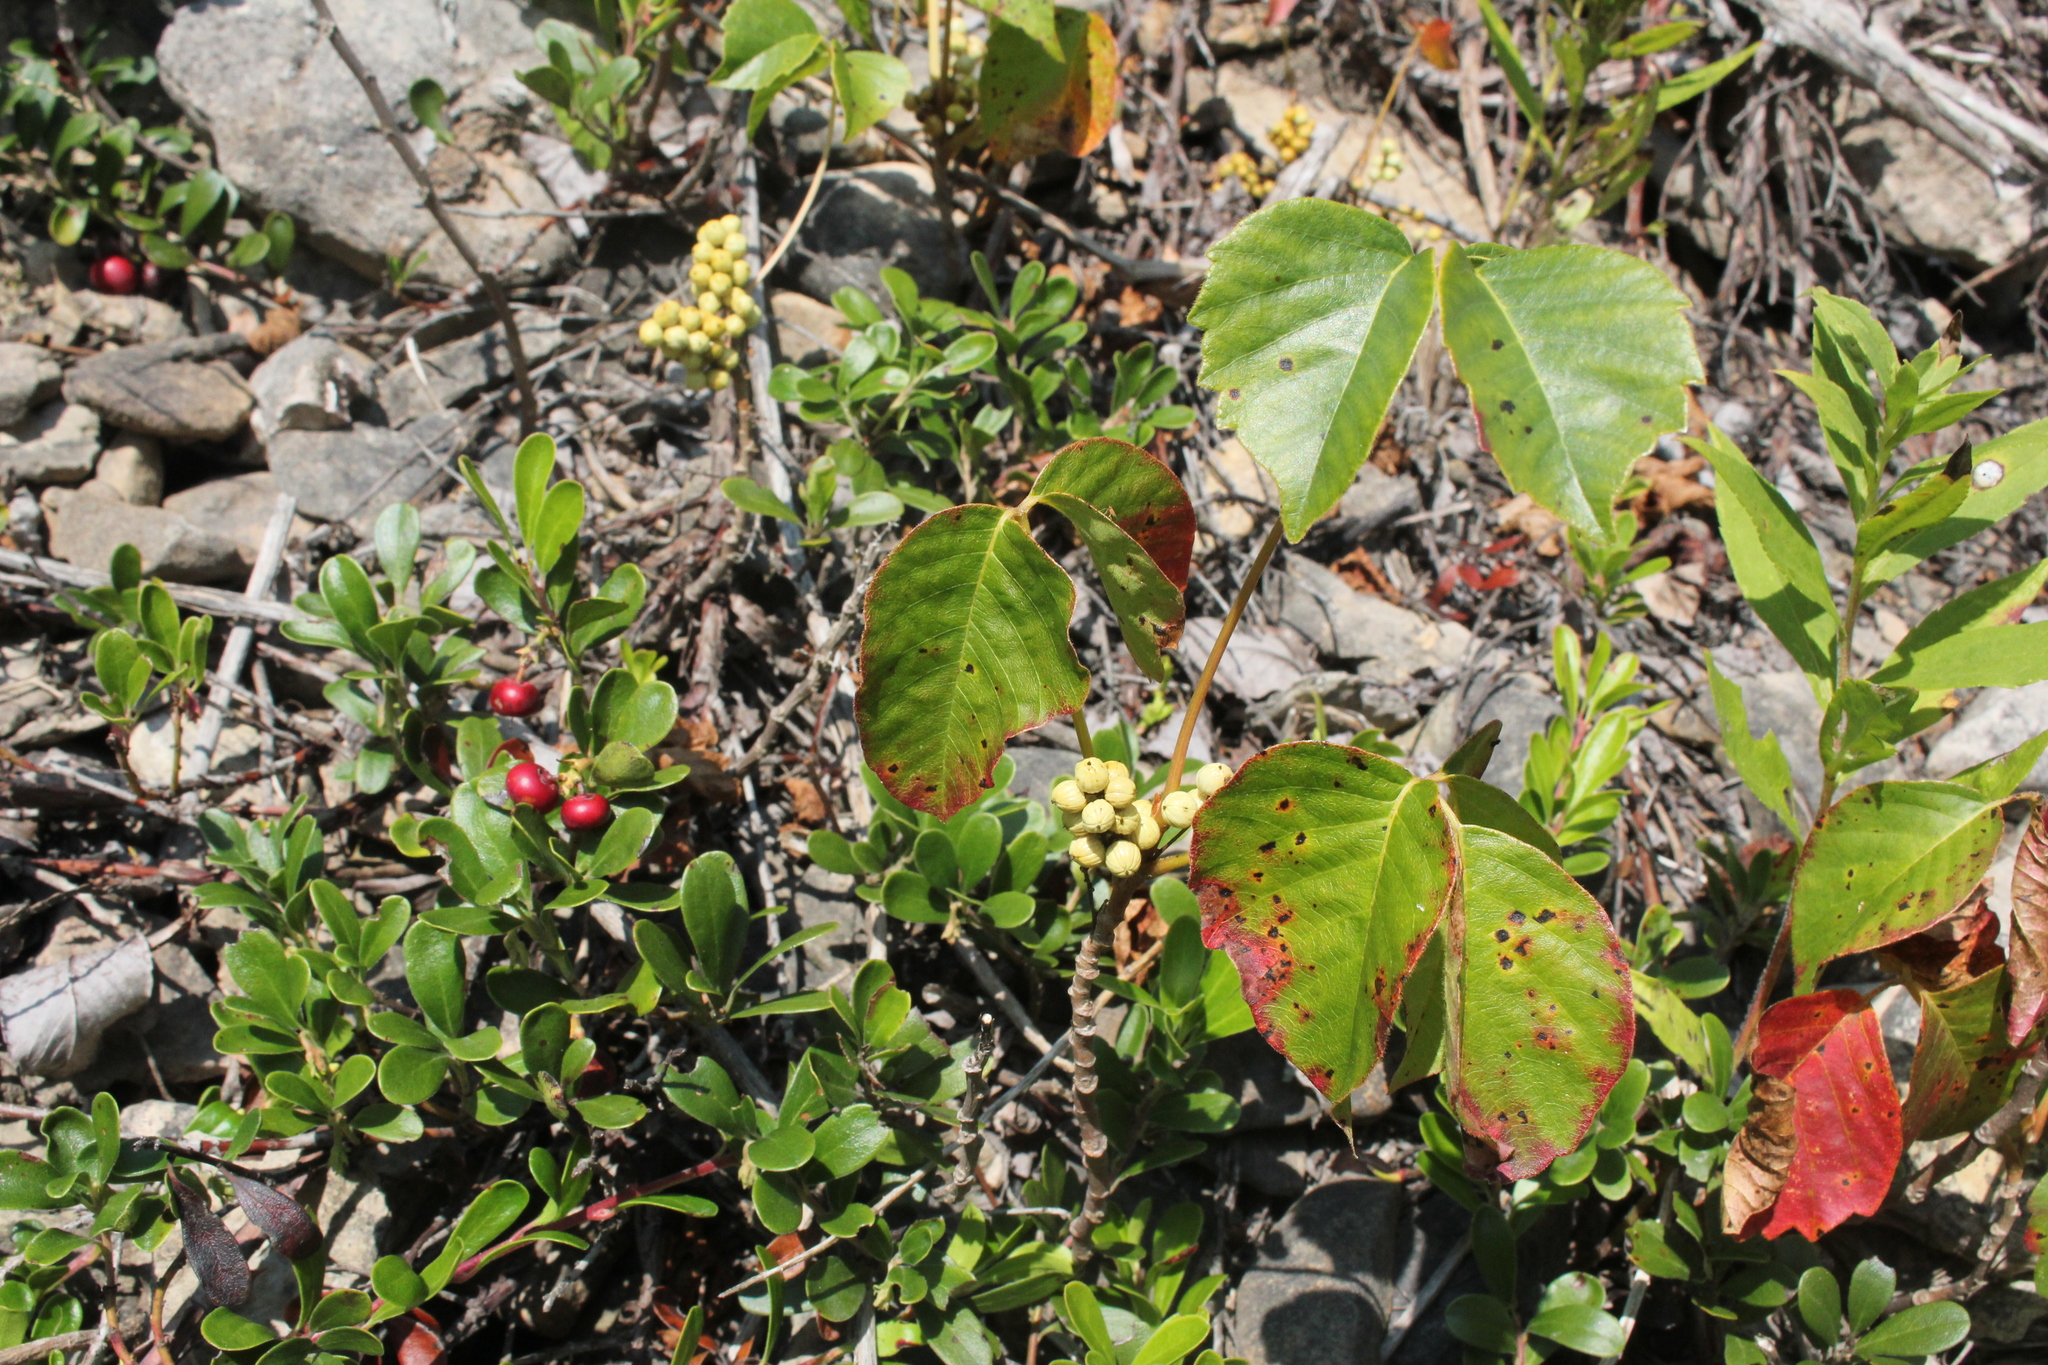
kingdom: Plantae
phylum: Tracheophyta
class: Magnoliopsida
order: Sapindales
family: Anacardiaceae
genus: Toxicodendron
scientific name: Toxicodendron rydbergii
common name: Rydberg's poison-ivy
